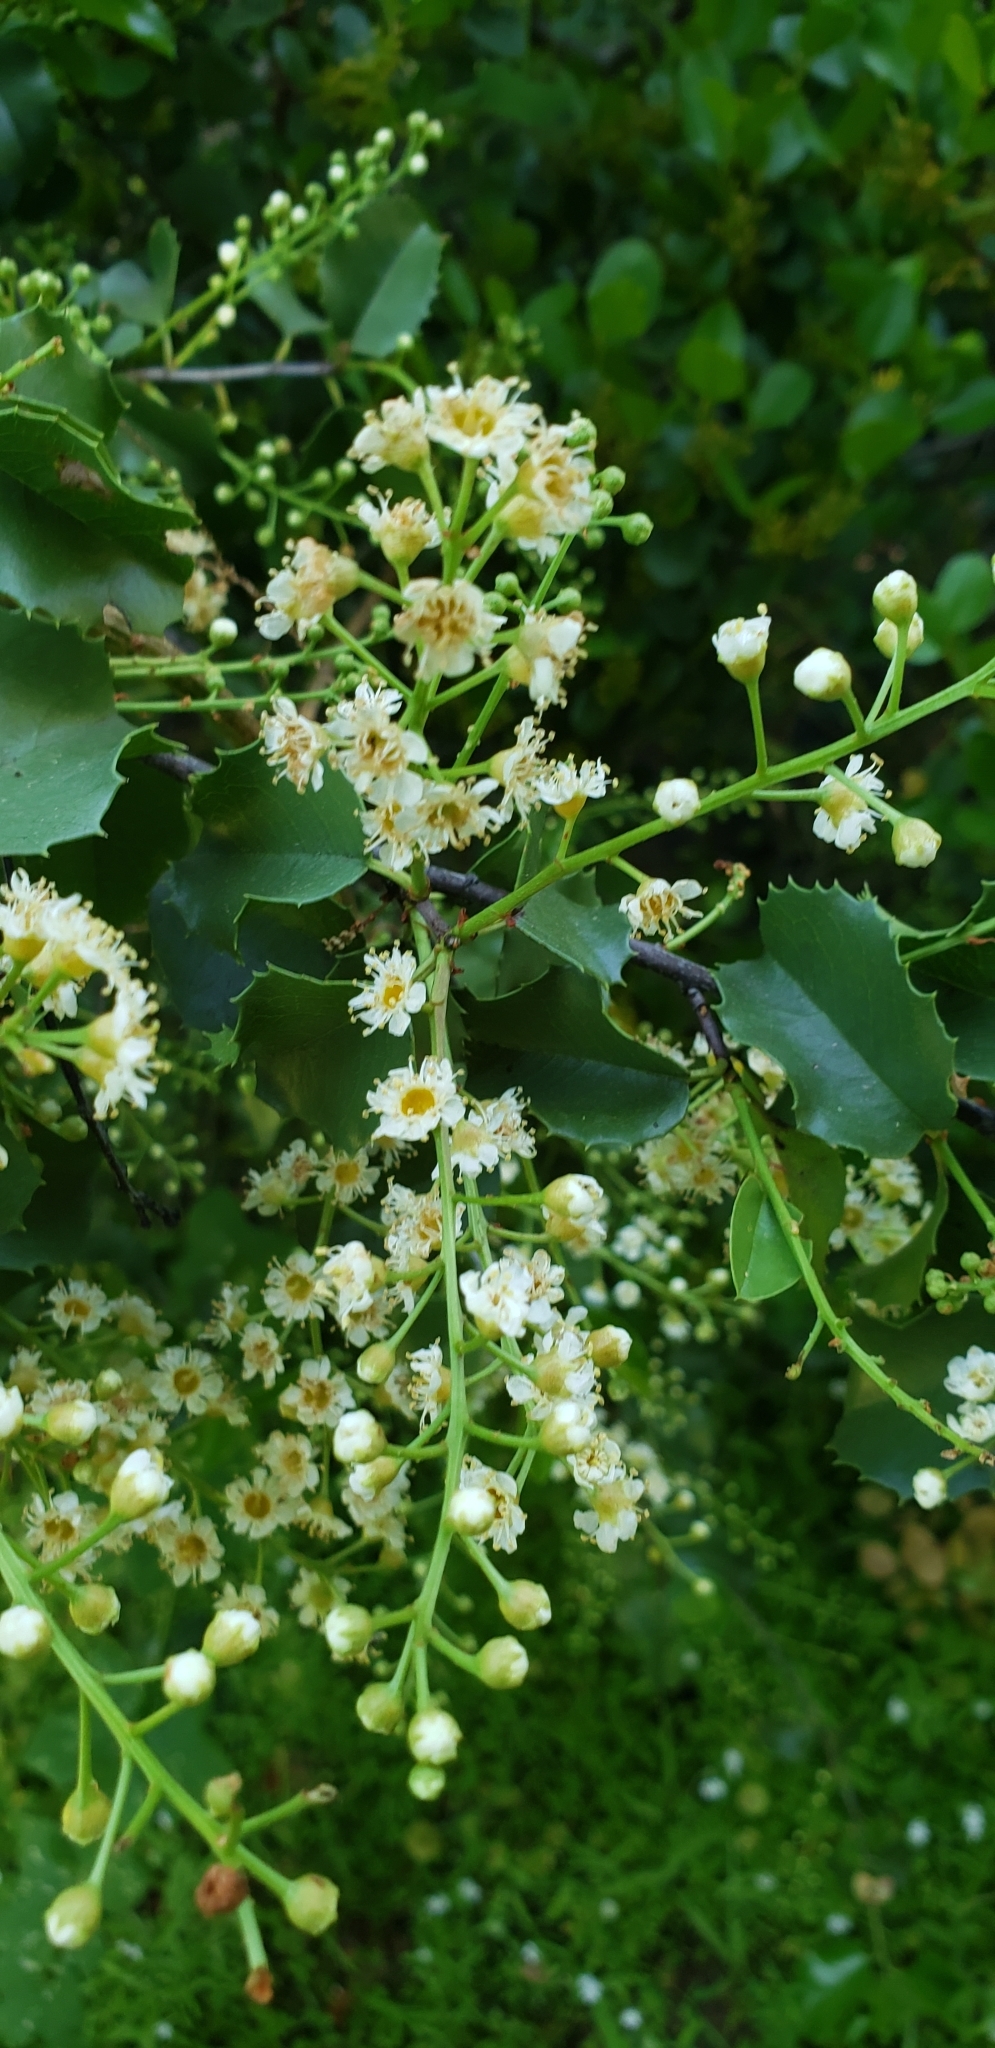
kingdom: Plantae
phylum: Tracheophyta
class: Magnoliopsida
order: Rosales
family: Rosaceae
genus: Prunus
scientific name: Prunus ilicifolia
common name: Hollyleaf cherry
